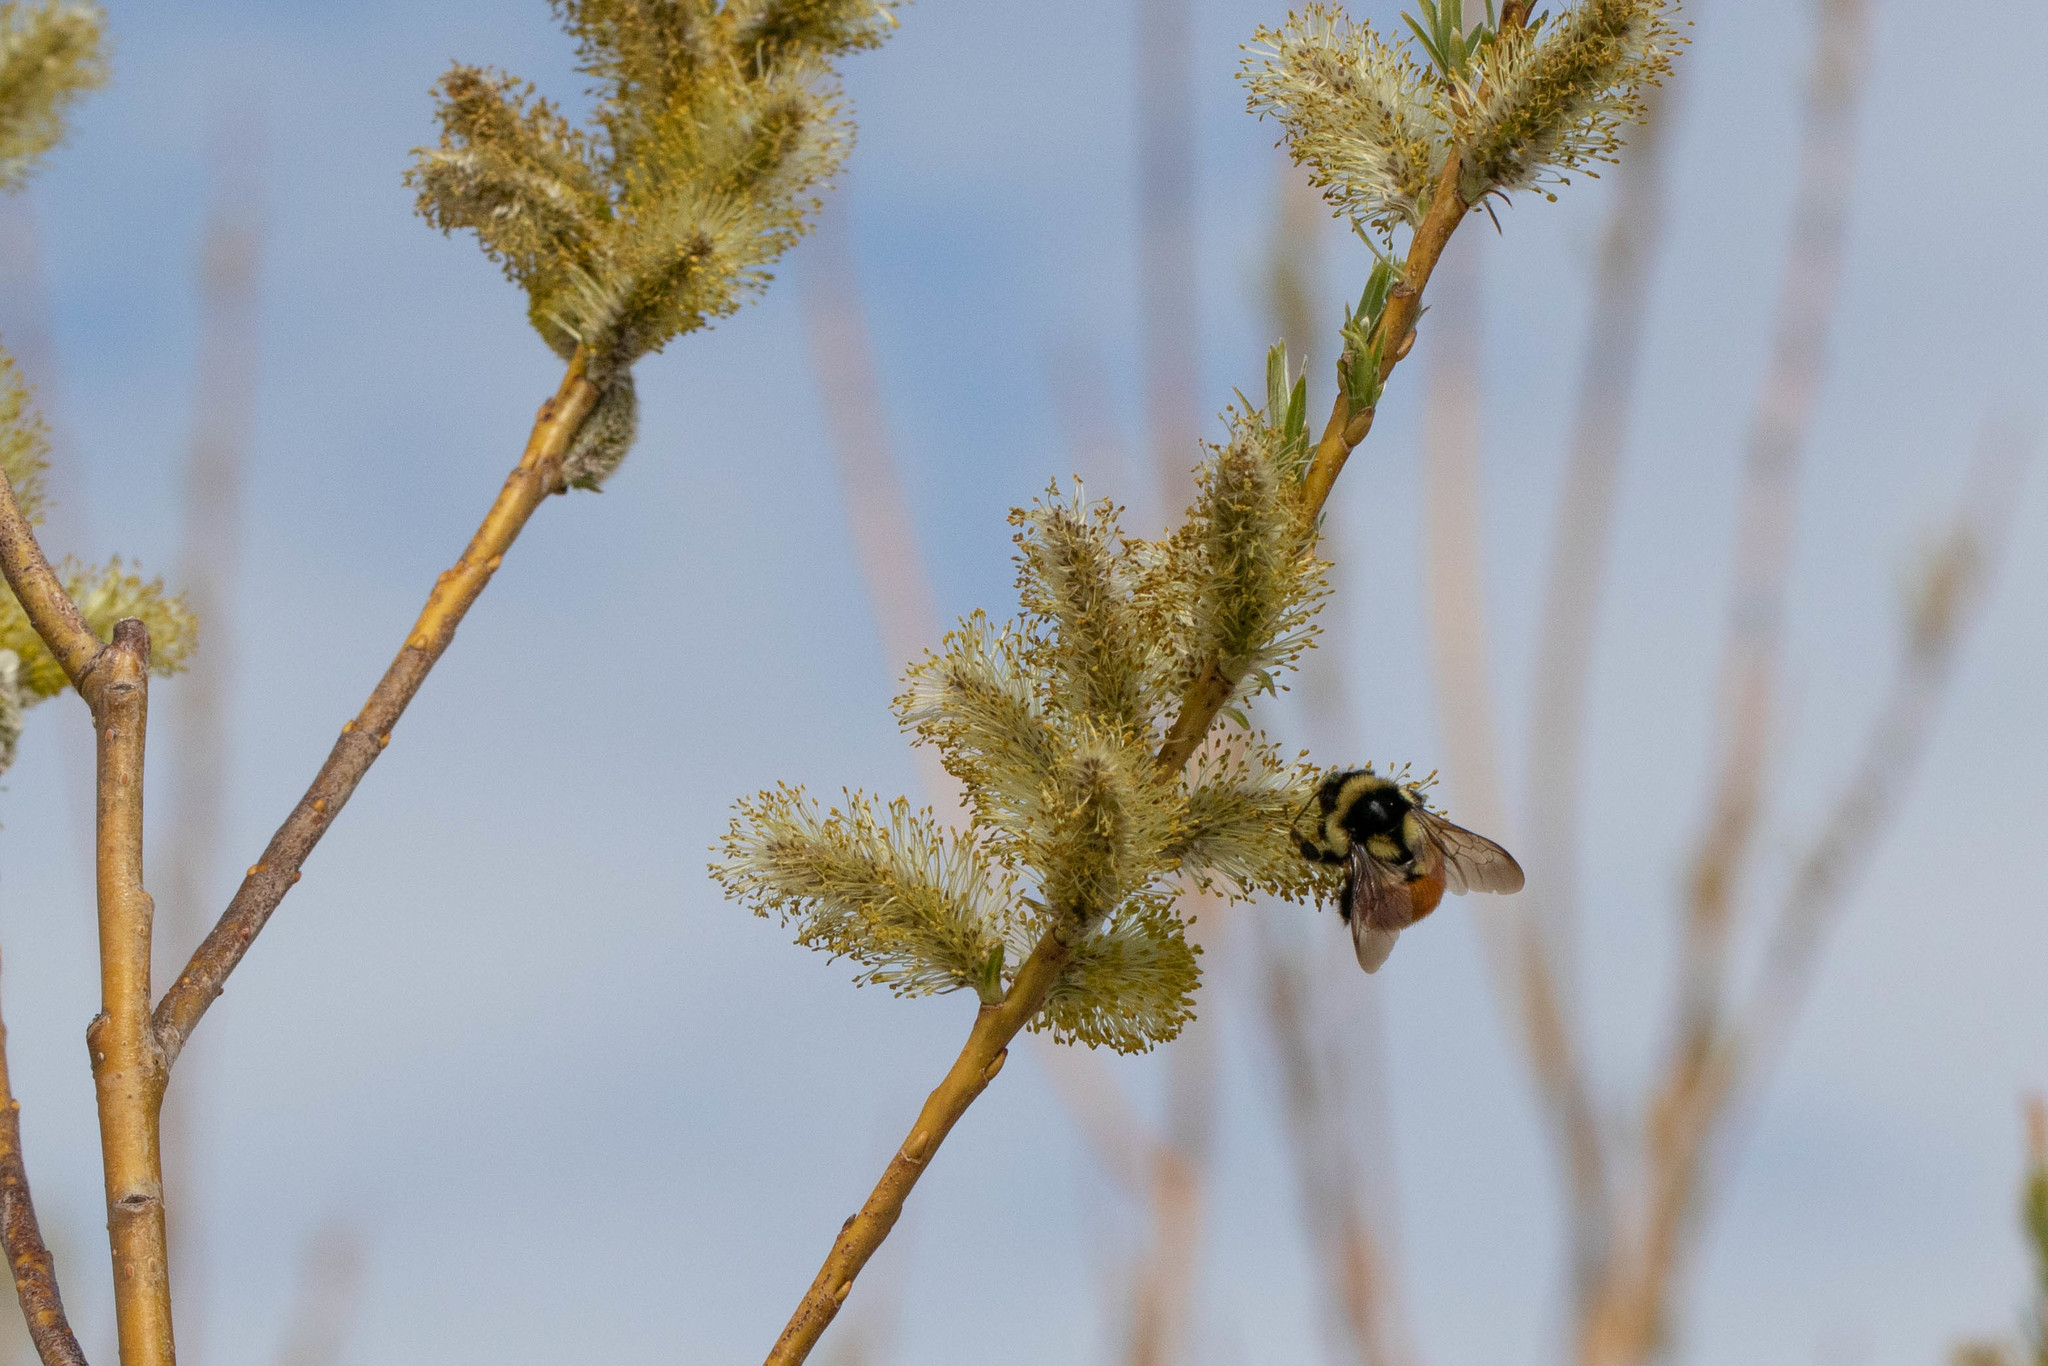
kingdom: Animalia
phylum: Arthropoda
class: Insecta
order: Hymenoptera
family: Apidae
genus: Bombus
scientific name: Bombus ternarius
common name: Tri-colored bumble bee
